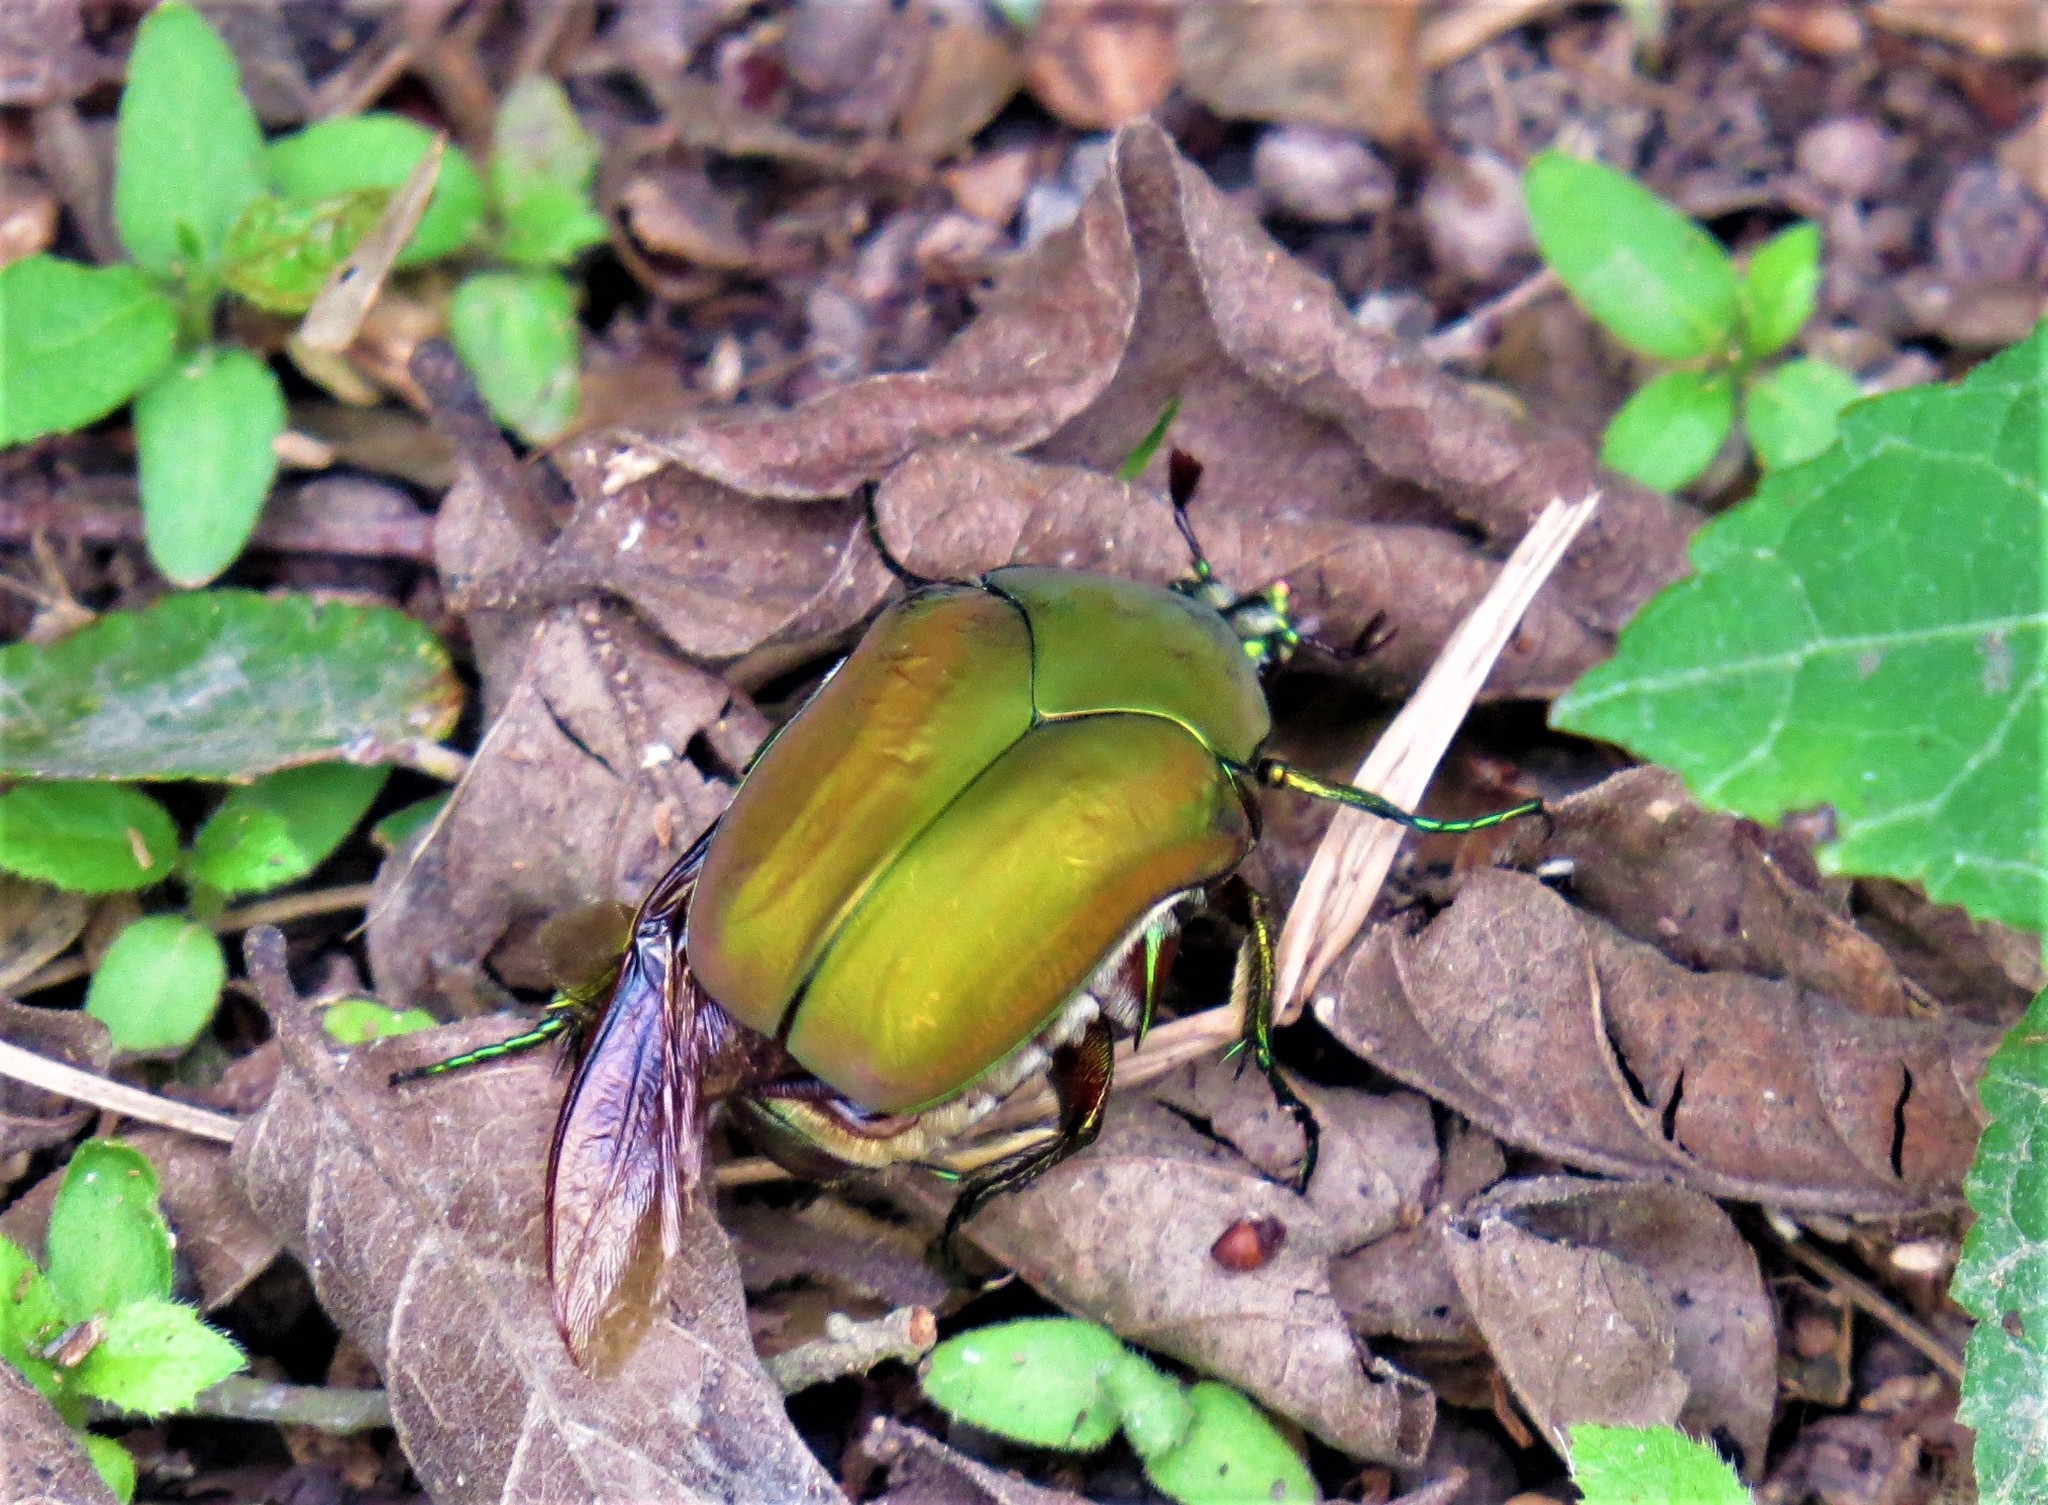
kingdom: Animalia
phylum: Arthropoda
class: Insecta
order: Coleoptera
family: Scarabaeidae
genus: Cotinis
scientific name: Cotinis mutabilis
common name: Figeater beetle
